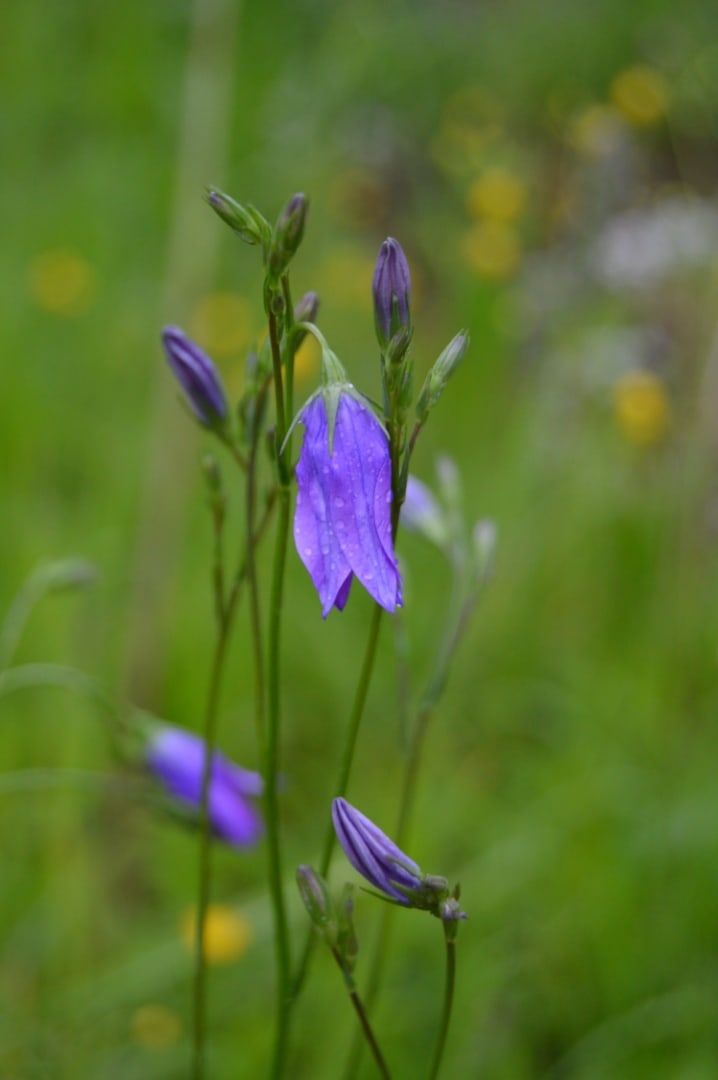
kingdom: Plantae
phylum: Tracheophyta
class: Magnoliopsida
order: Asterales
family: Campanulaceae
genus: Campanula
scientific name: Campanula rotundifolia
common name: Harebell
